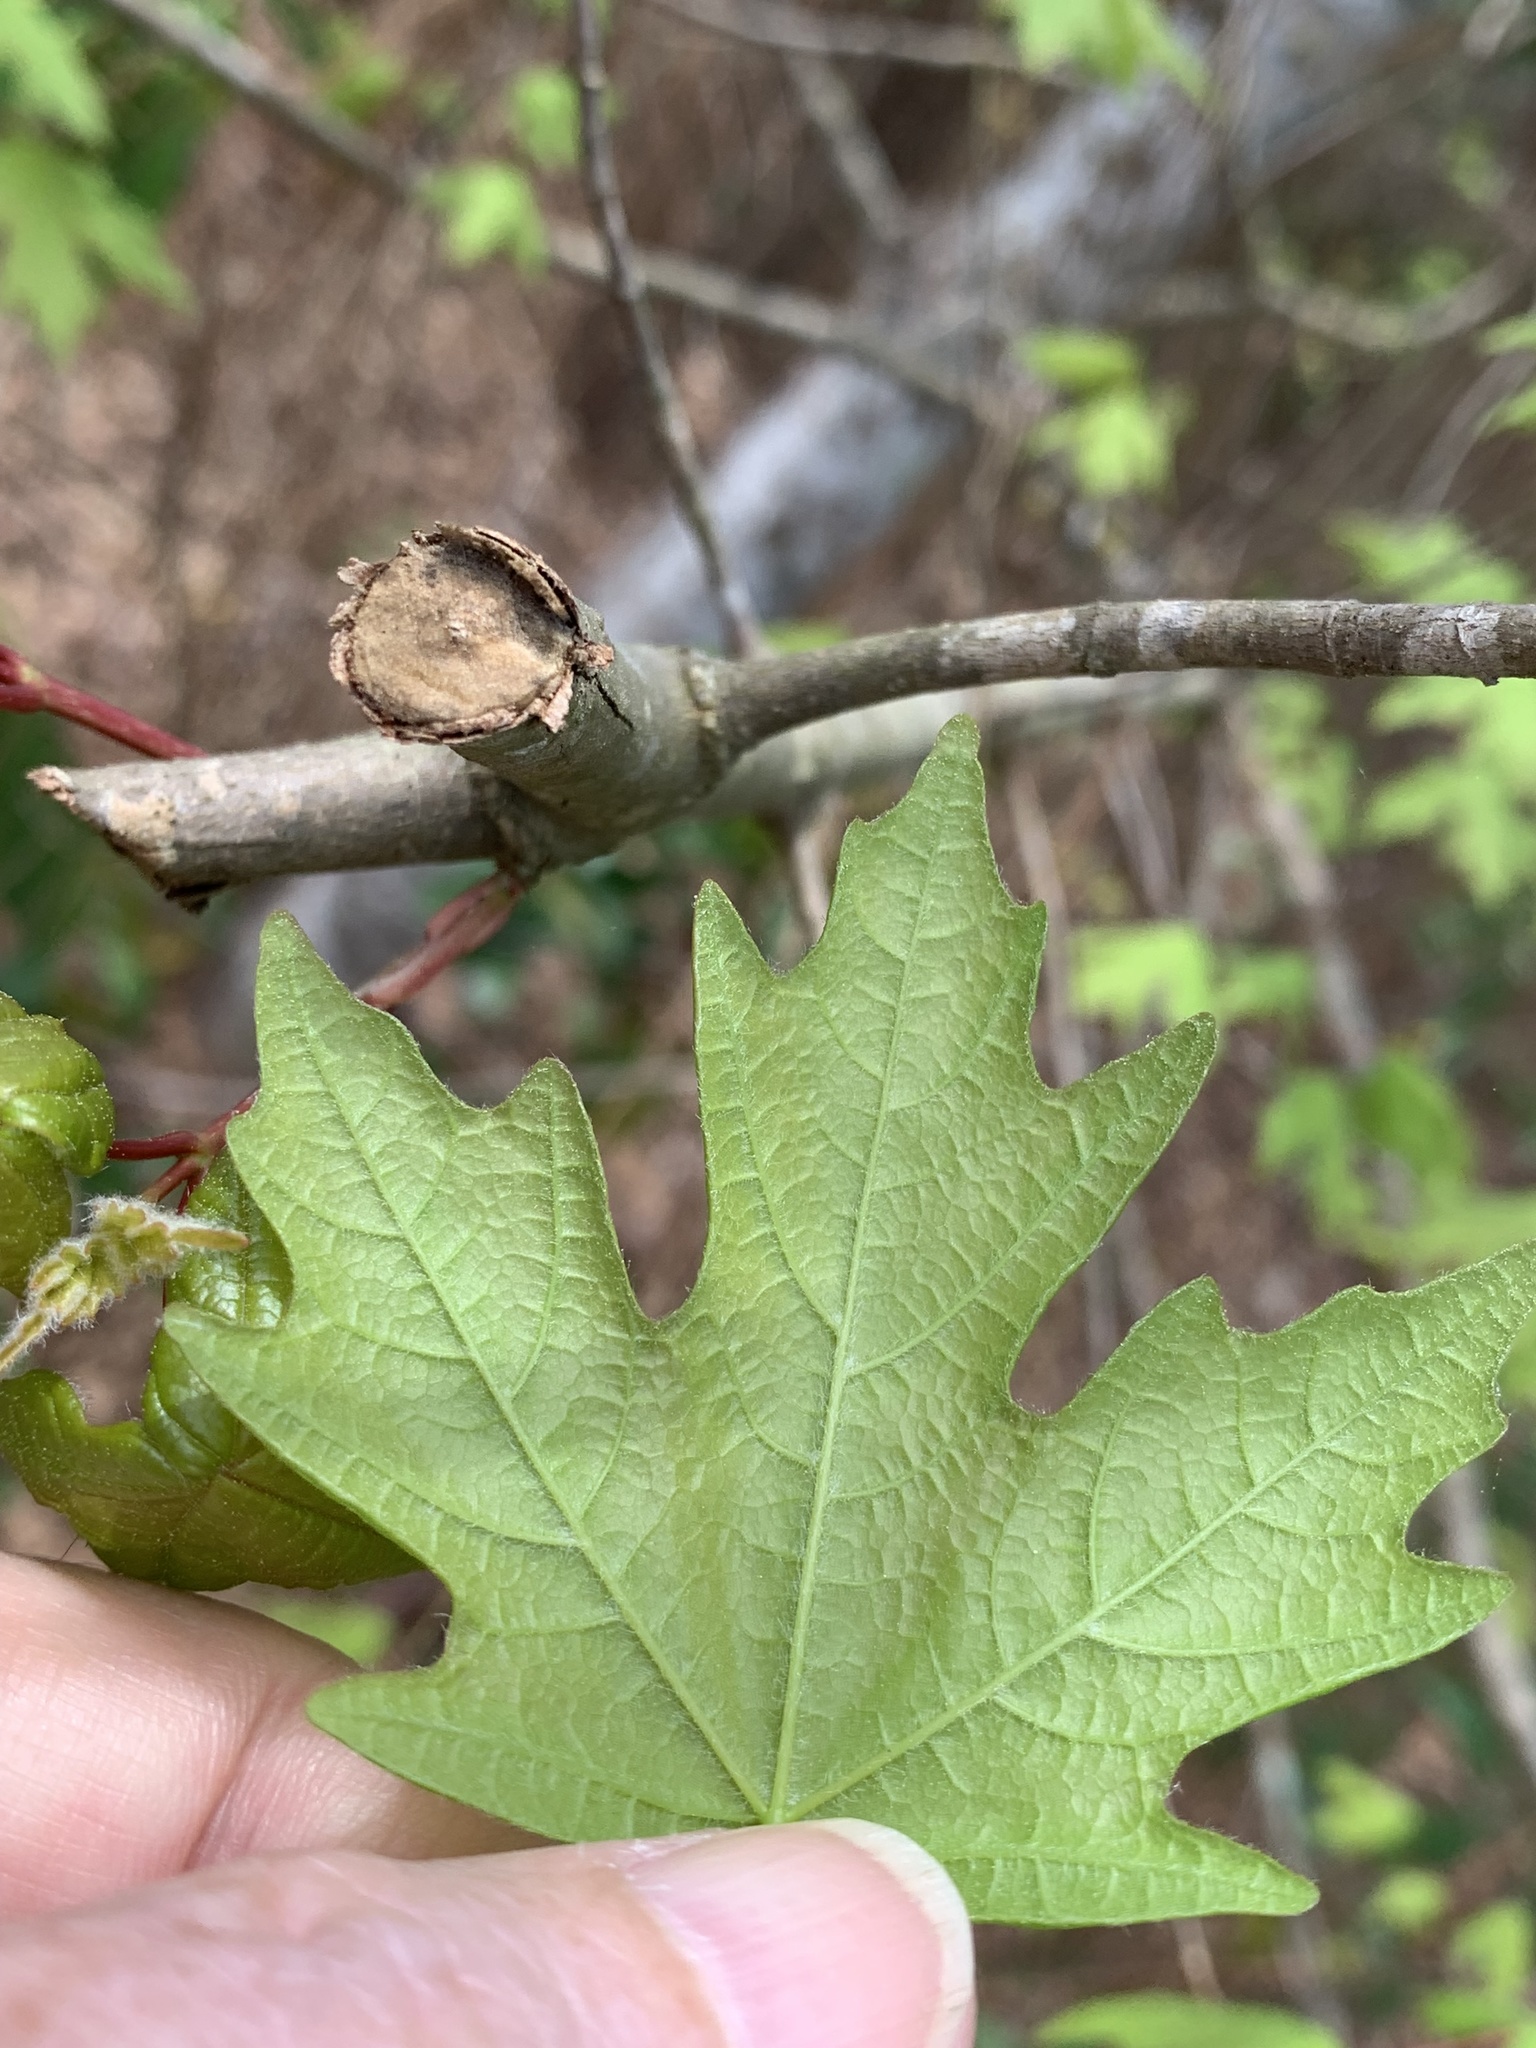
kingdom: Plantae
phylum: Tracheophyta
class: Magnoliopsida
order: Sapindales
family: Sapindaceae
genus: Acer
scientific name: Acer floridanum
